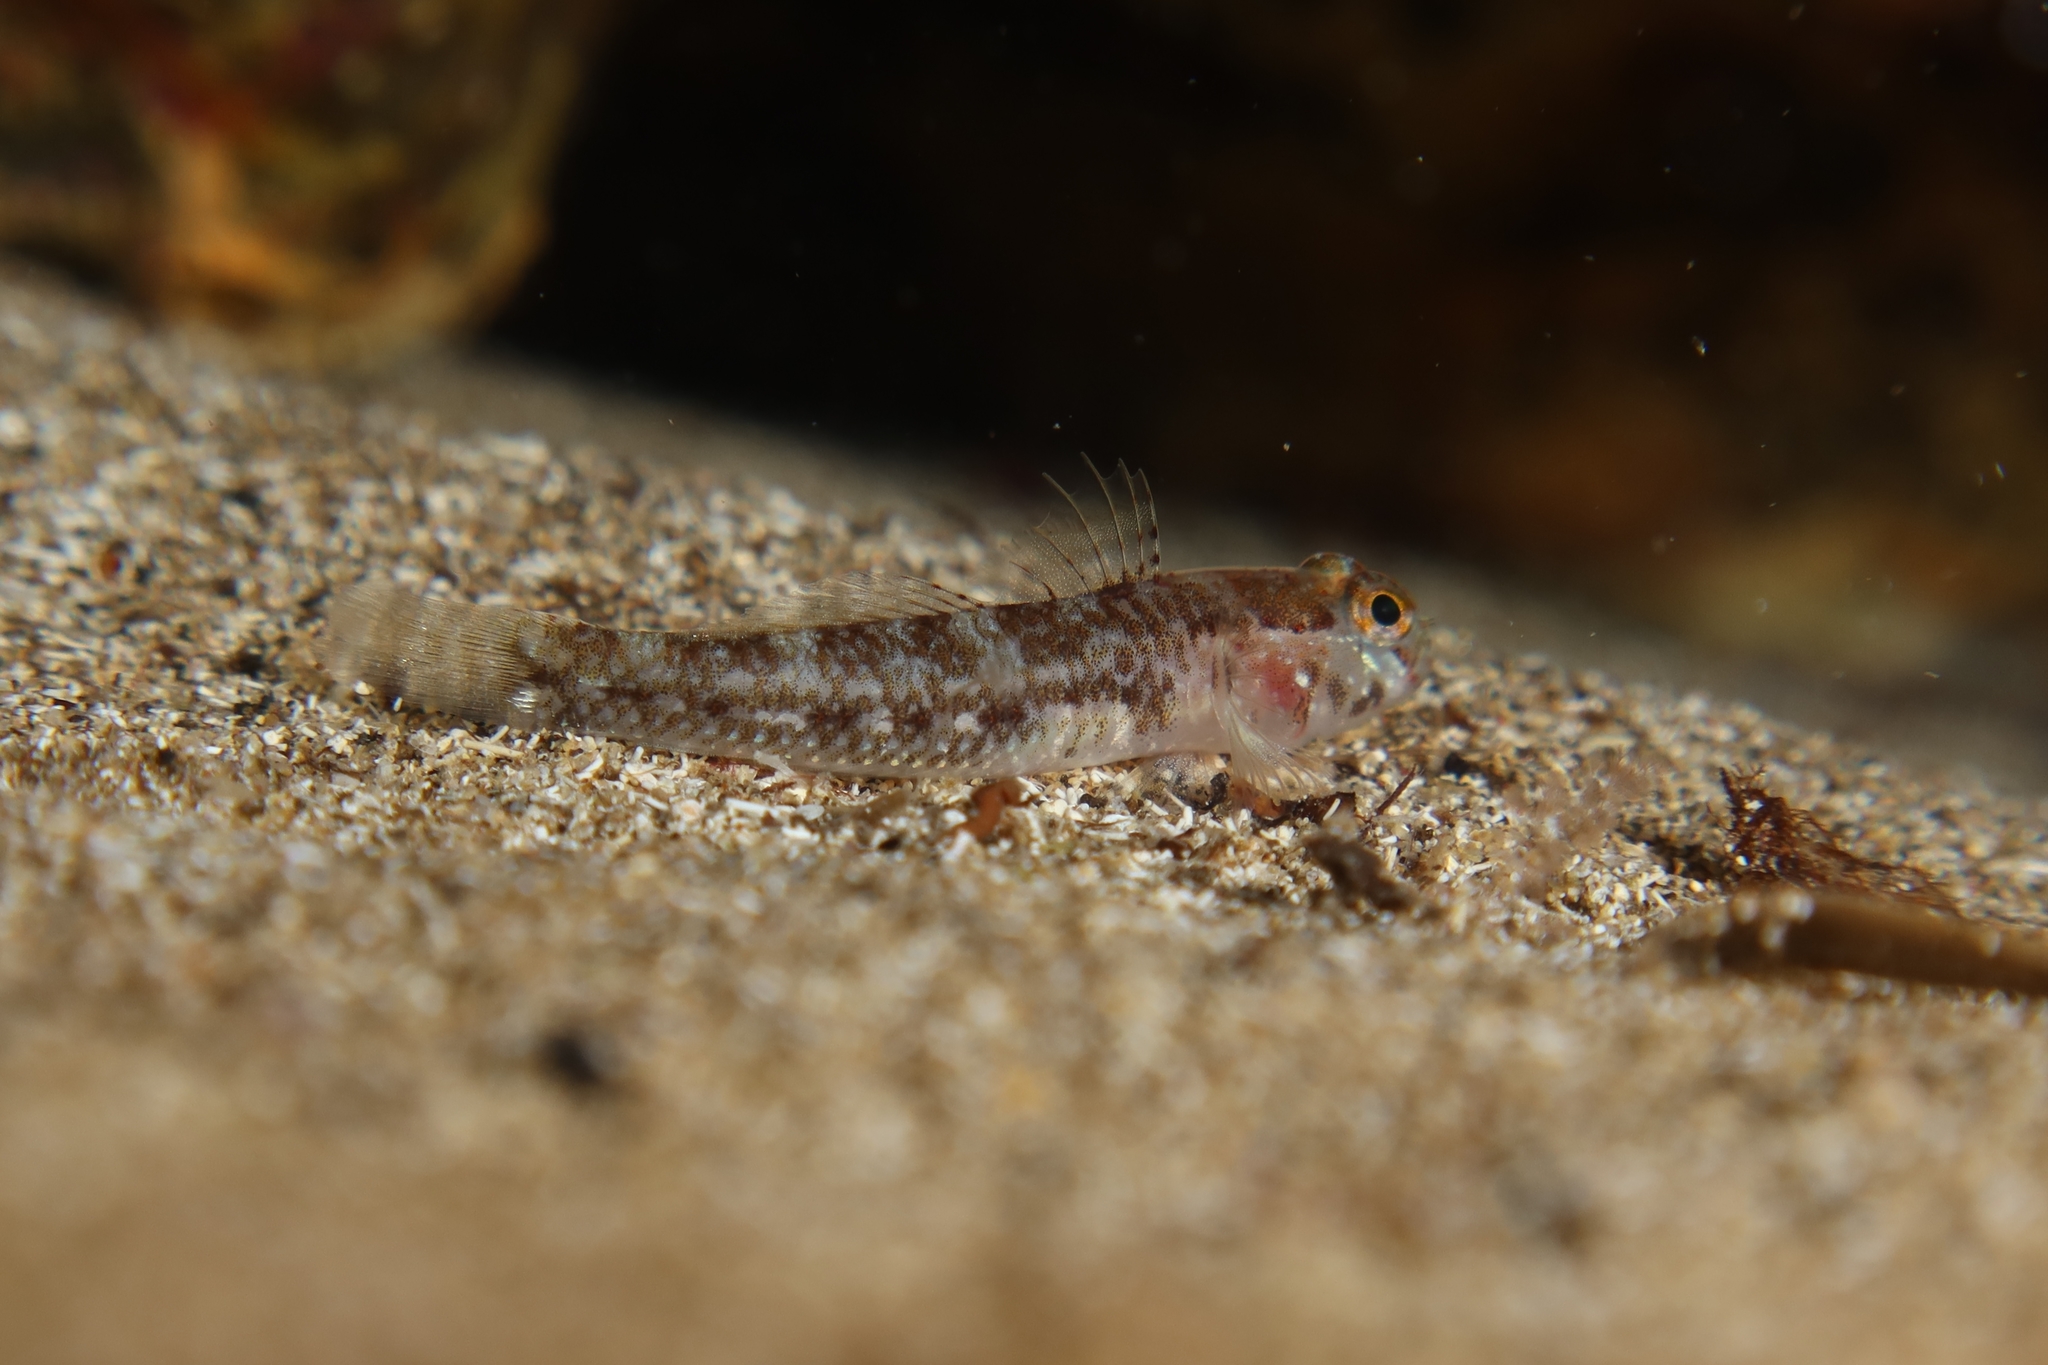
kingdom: Animalia
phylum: Chordata
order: Perciformes
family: Gobiidae
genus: Vanneaugobius
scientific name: Vanneaugobius canariensis
